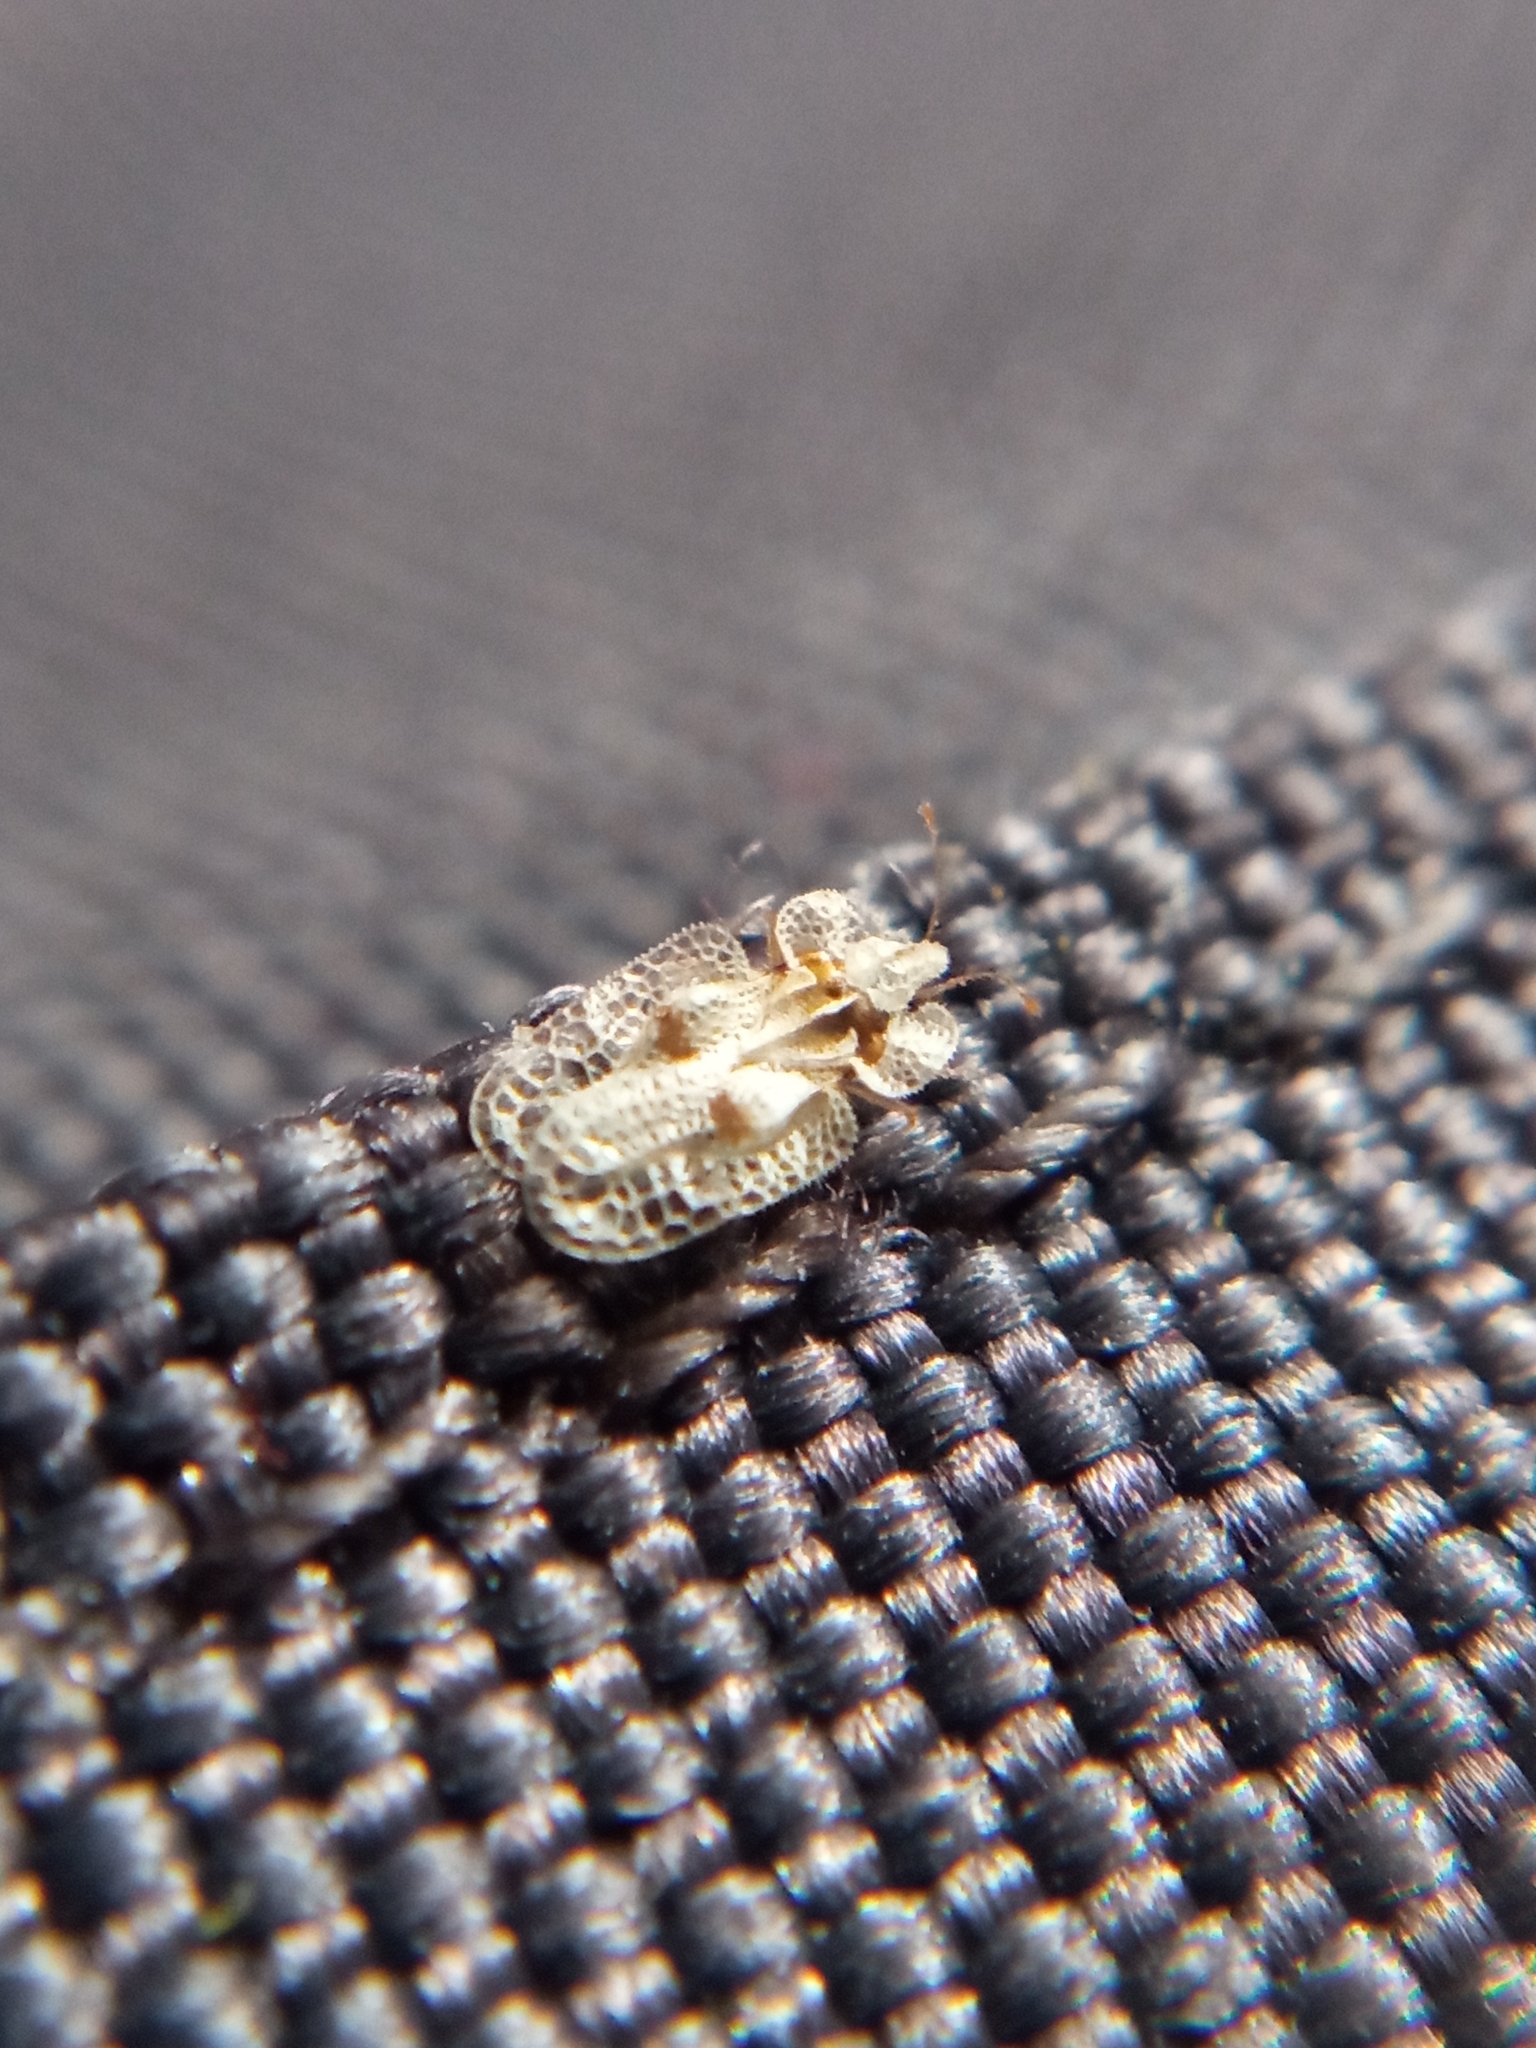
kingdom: Animalia
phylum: Arthropoda
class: Insecta
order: Hemiptera
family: Tingidae
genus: Corythucha
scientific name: Corythucha ciliata
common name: Sycamore lace bug
